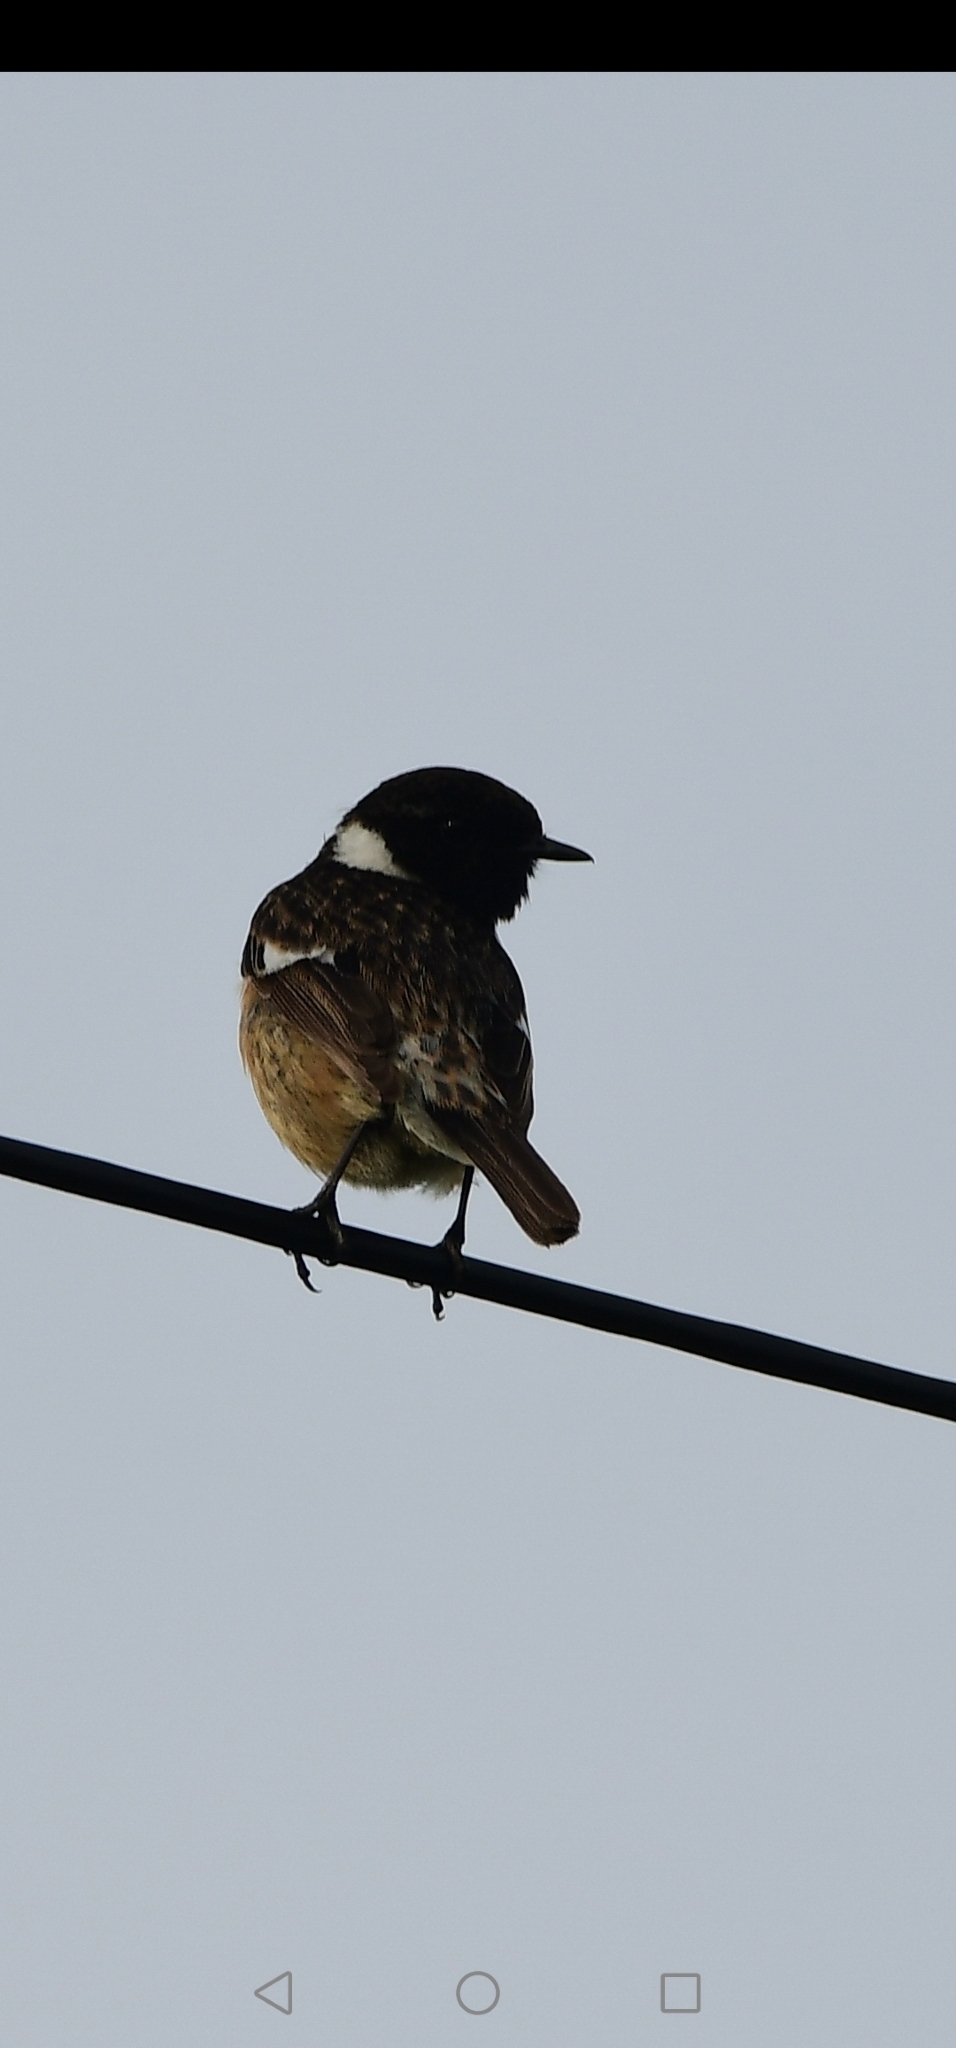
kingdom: Animalia
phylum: Chordata
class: Aves
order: Passeriformes
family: Muscicapidae
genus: Saxicola
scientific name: Saxicola rubicola
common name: European stonechat
